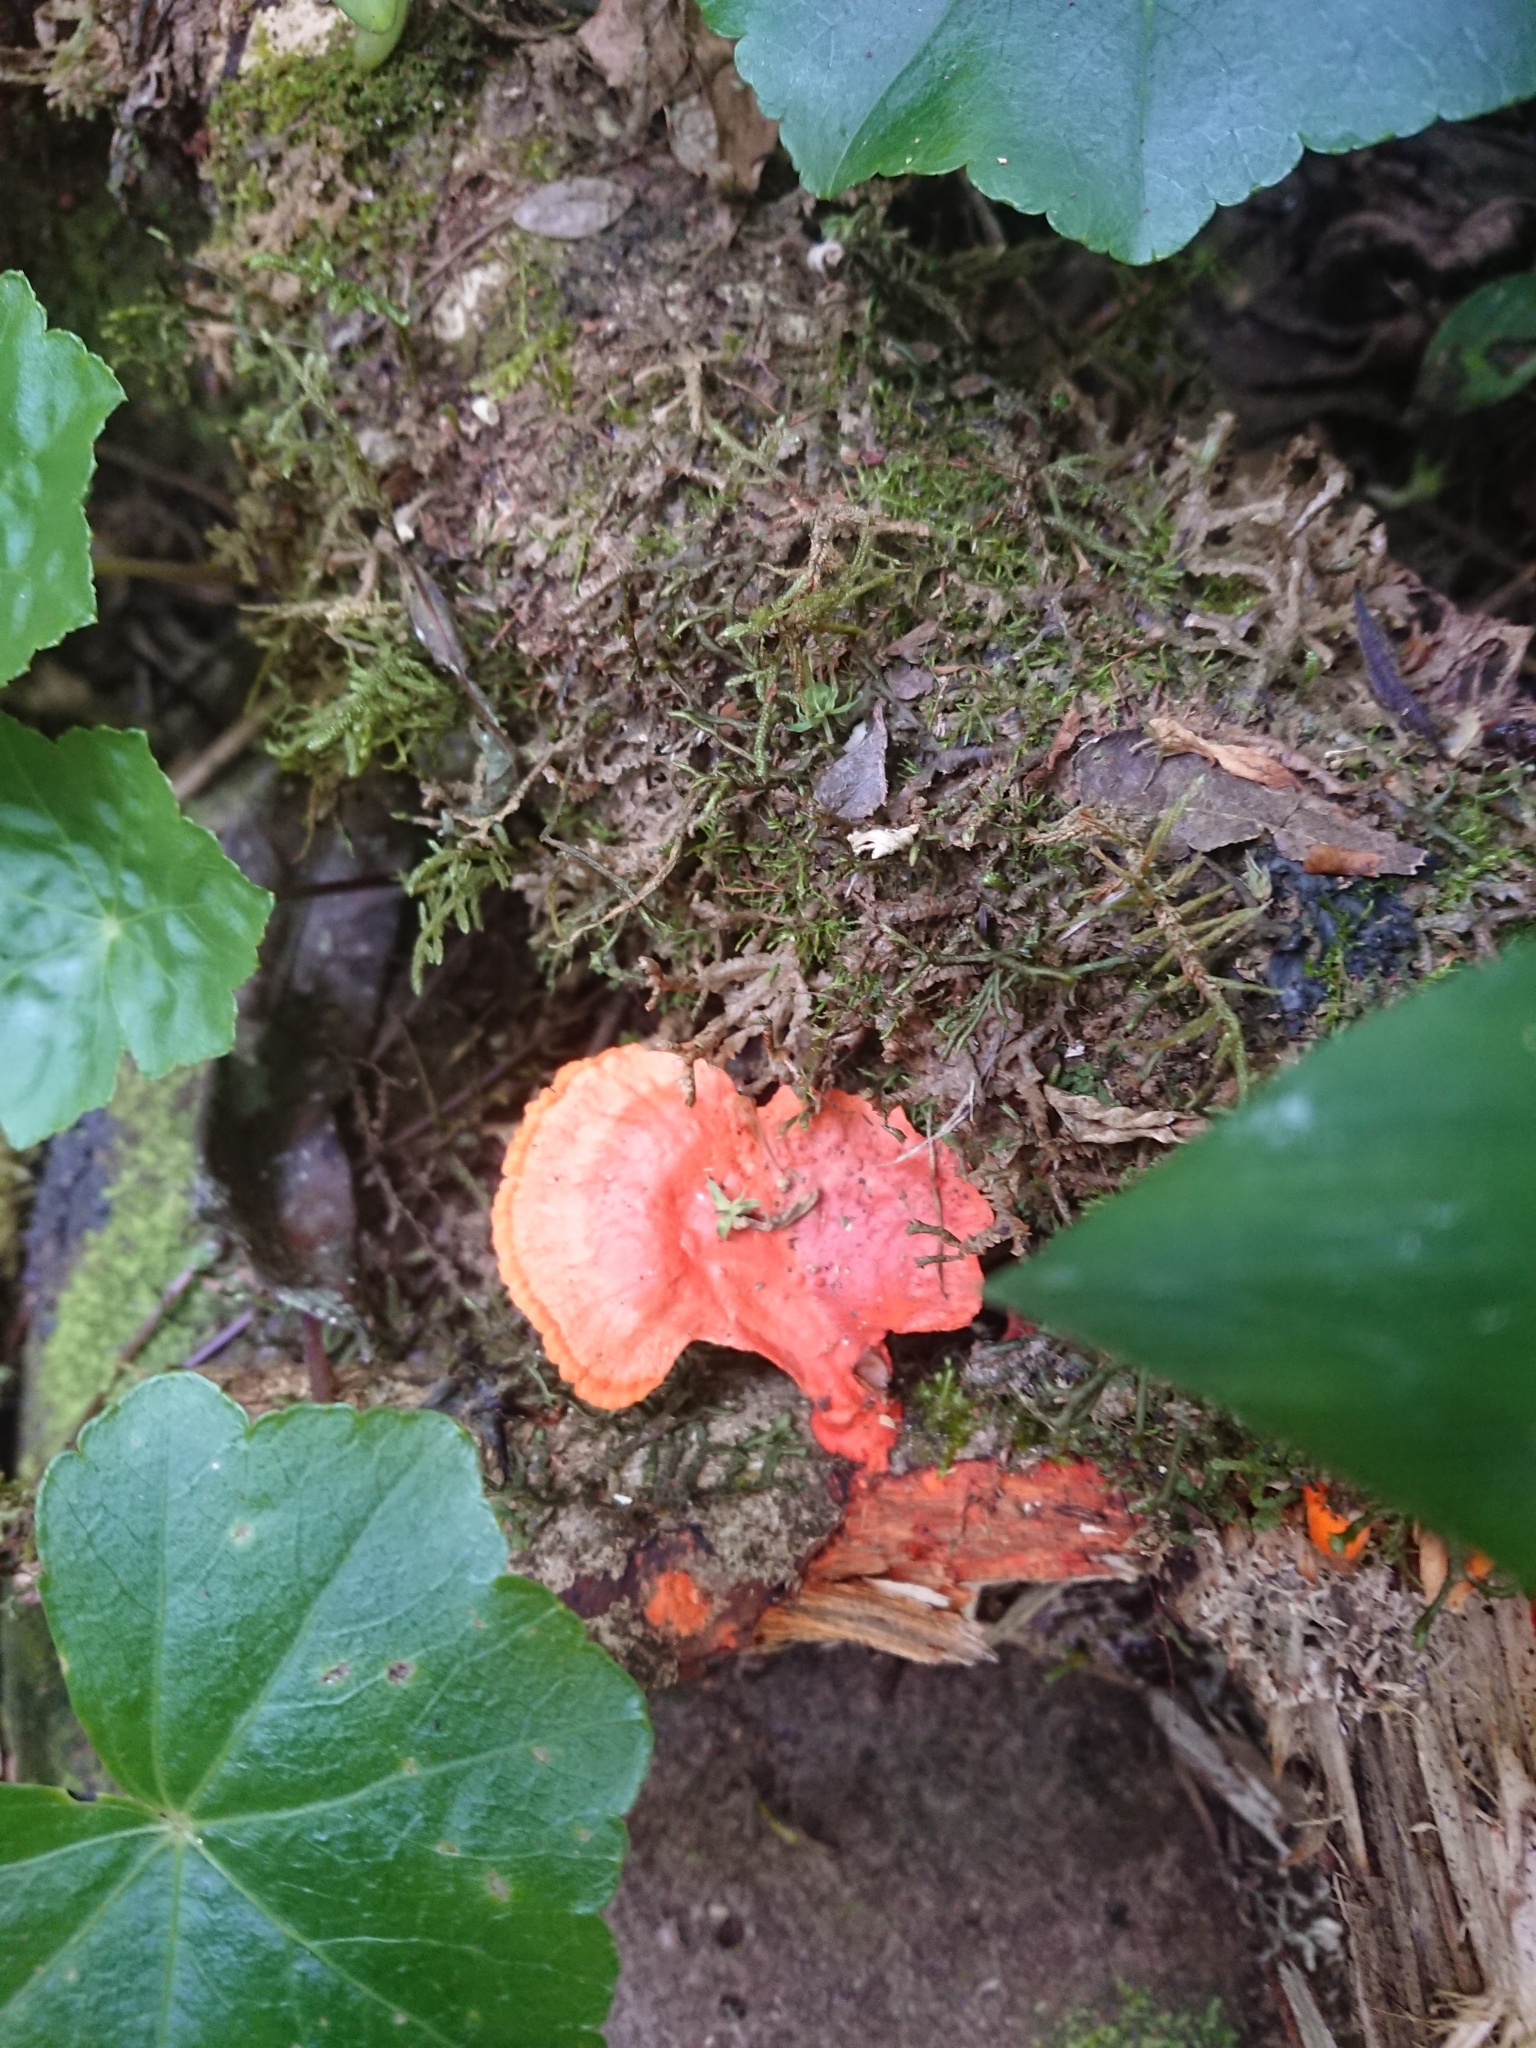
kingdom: Fungi
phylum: Basidiomycota
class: Agaricomycetes
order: Polyporales
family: Polyporaceae
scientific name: Polyporaceae
